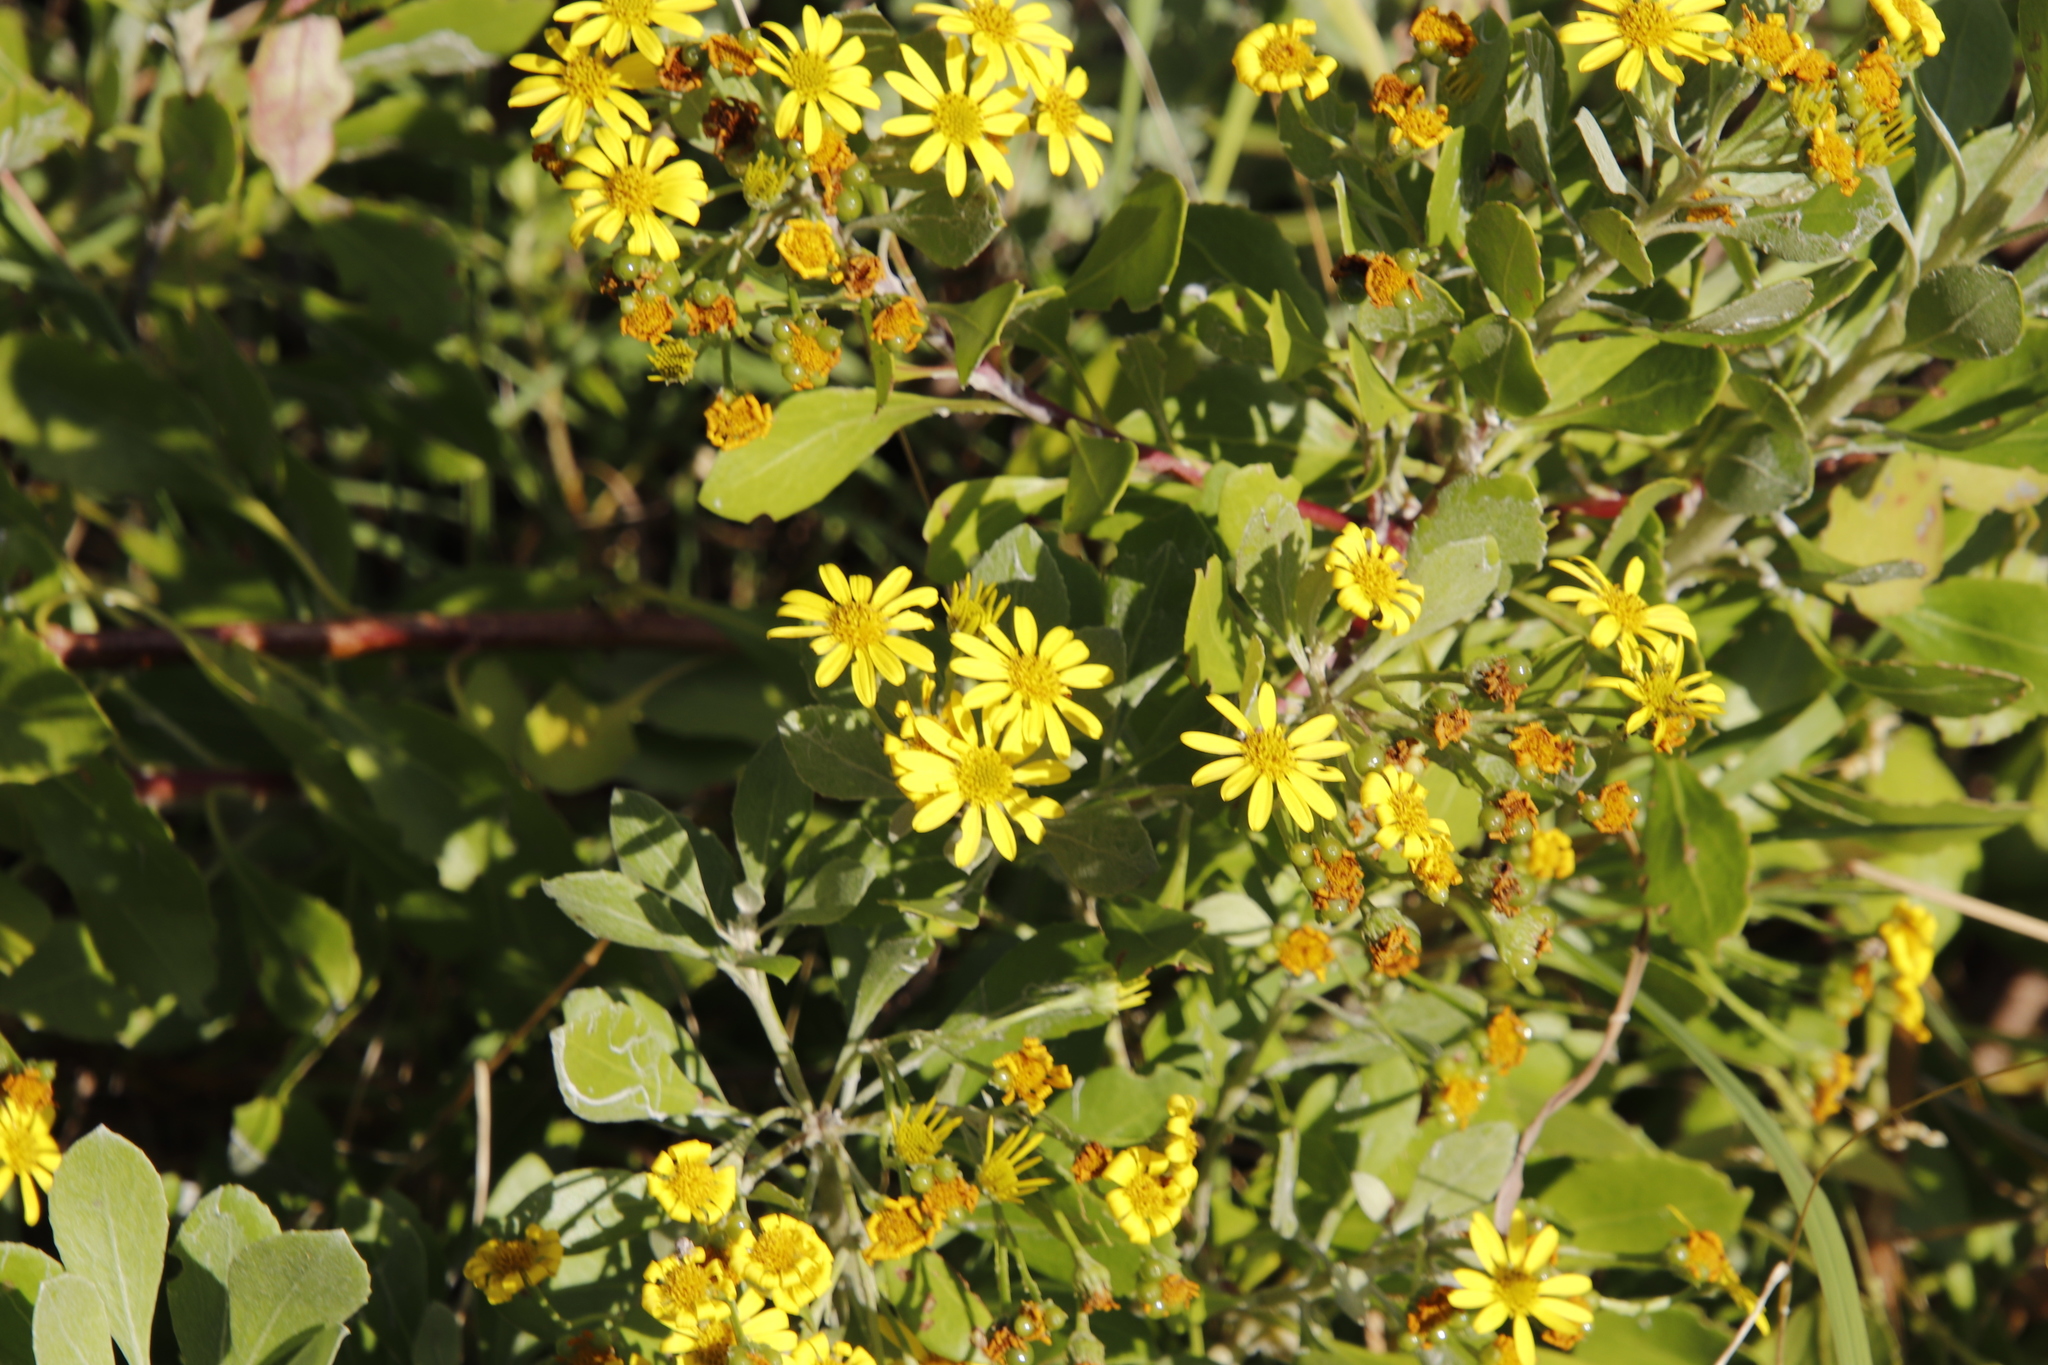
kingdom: Plantae
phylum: Tracheophyta
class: Magnoliopsida
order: Asterales
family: Asteraceae
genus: Osteospermum
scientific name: Osteospermum moniliferum
